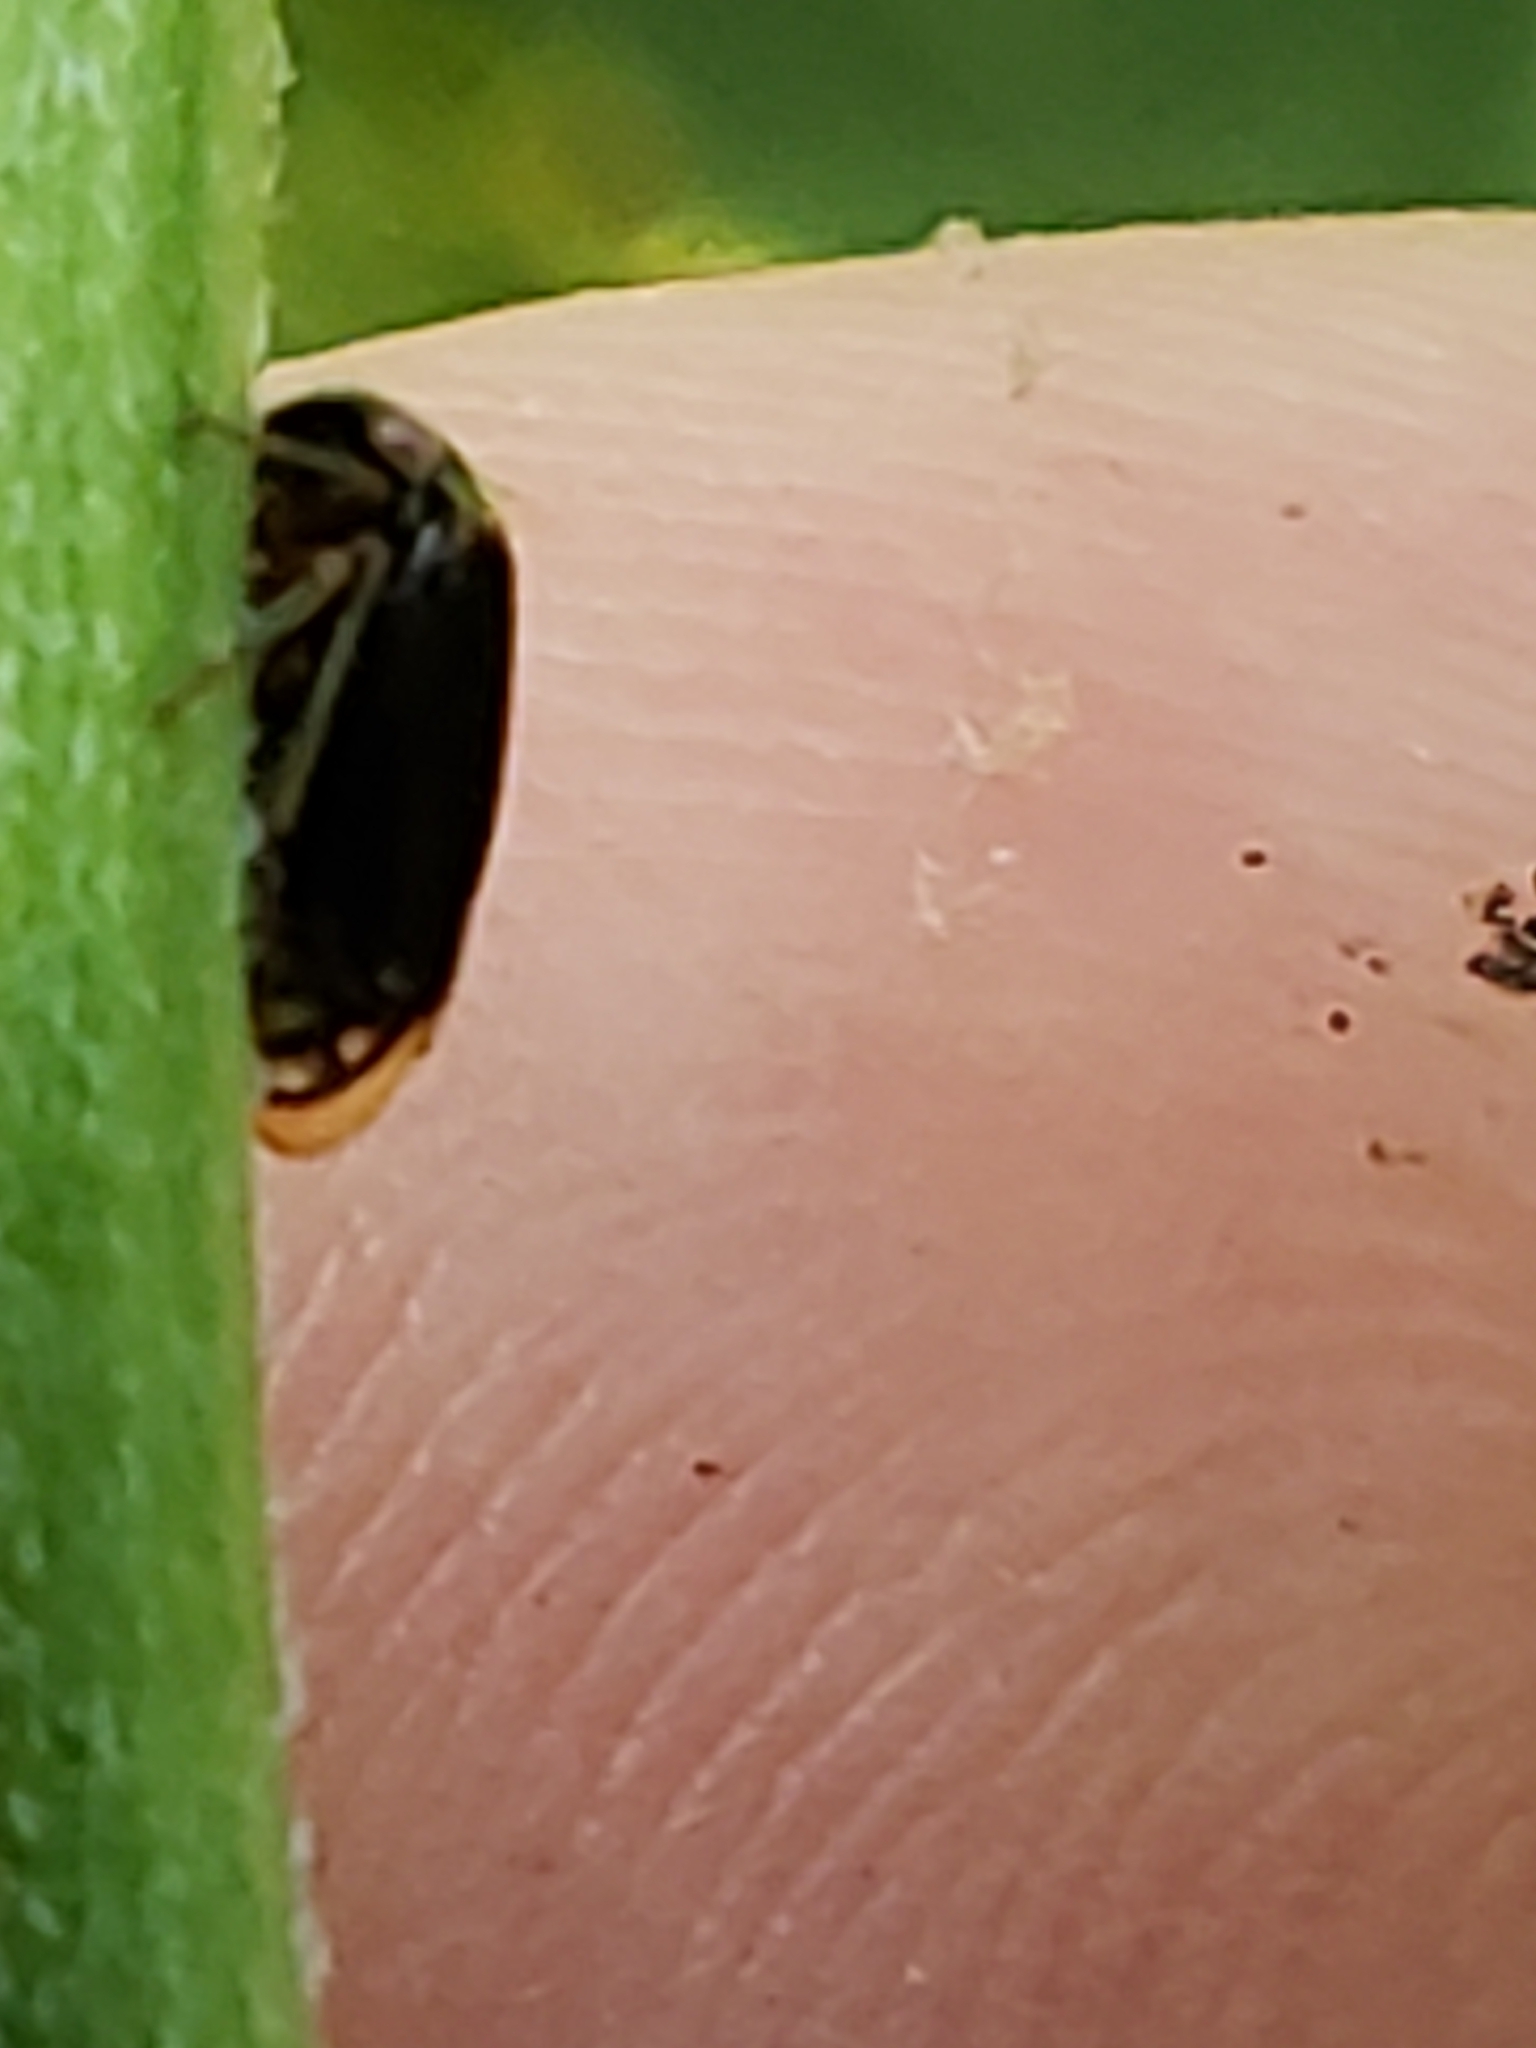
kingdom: Animalia
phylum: Arthropoda
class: Insecta
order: Hemiptera
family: Membracidae
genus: Acutalis
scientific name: Acutalis tartarea
